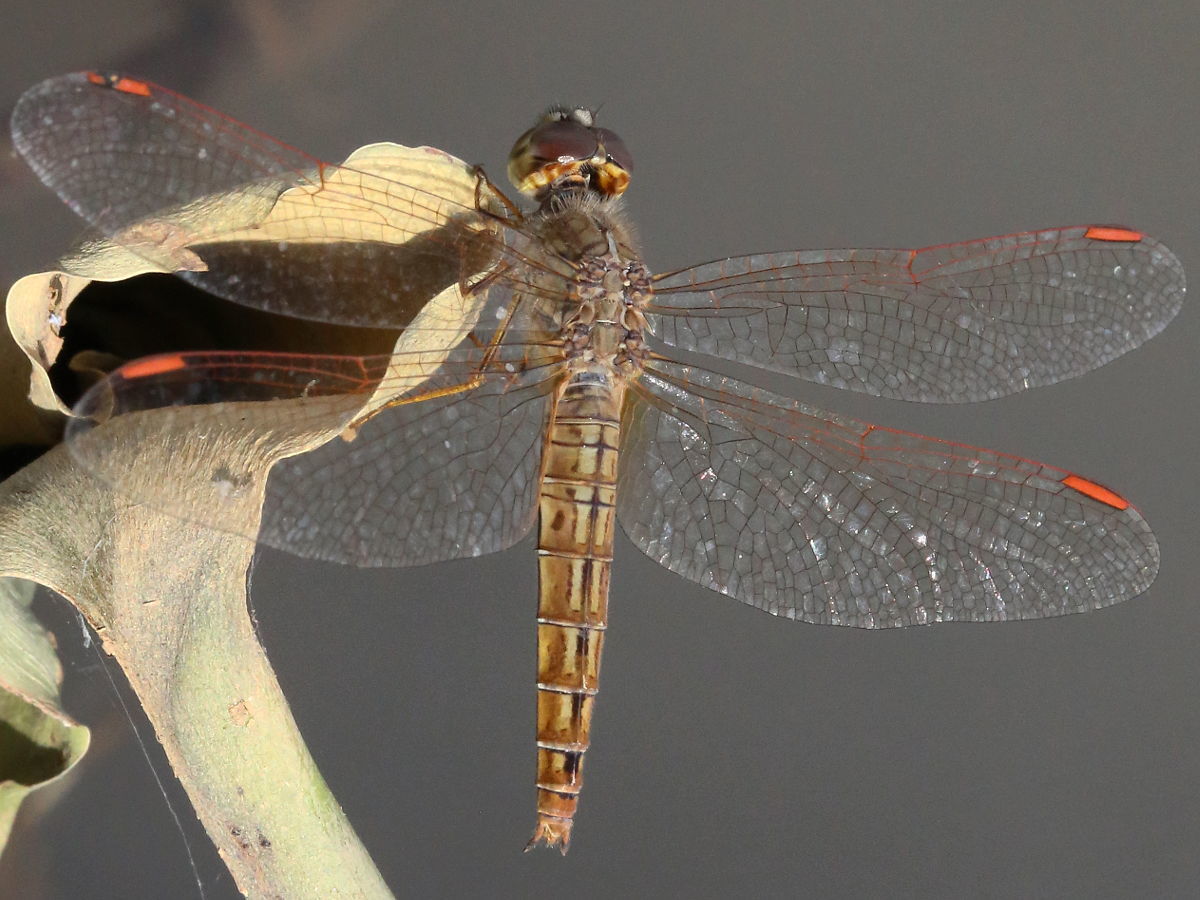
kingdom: Animalia
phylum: Arthropoda
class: Insecta
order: Odonata
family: Libellulidae
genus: Brachythemis
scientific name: Brachythemis contaminata
